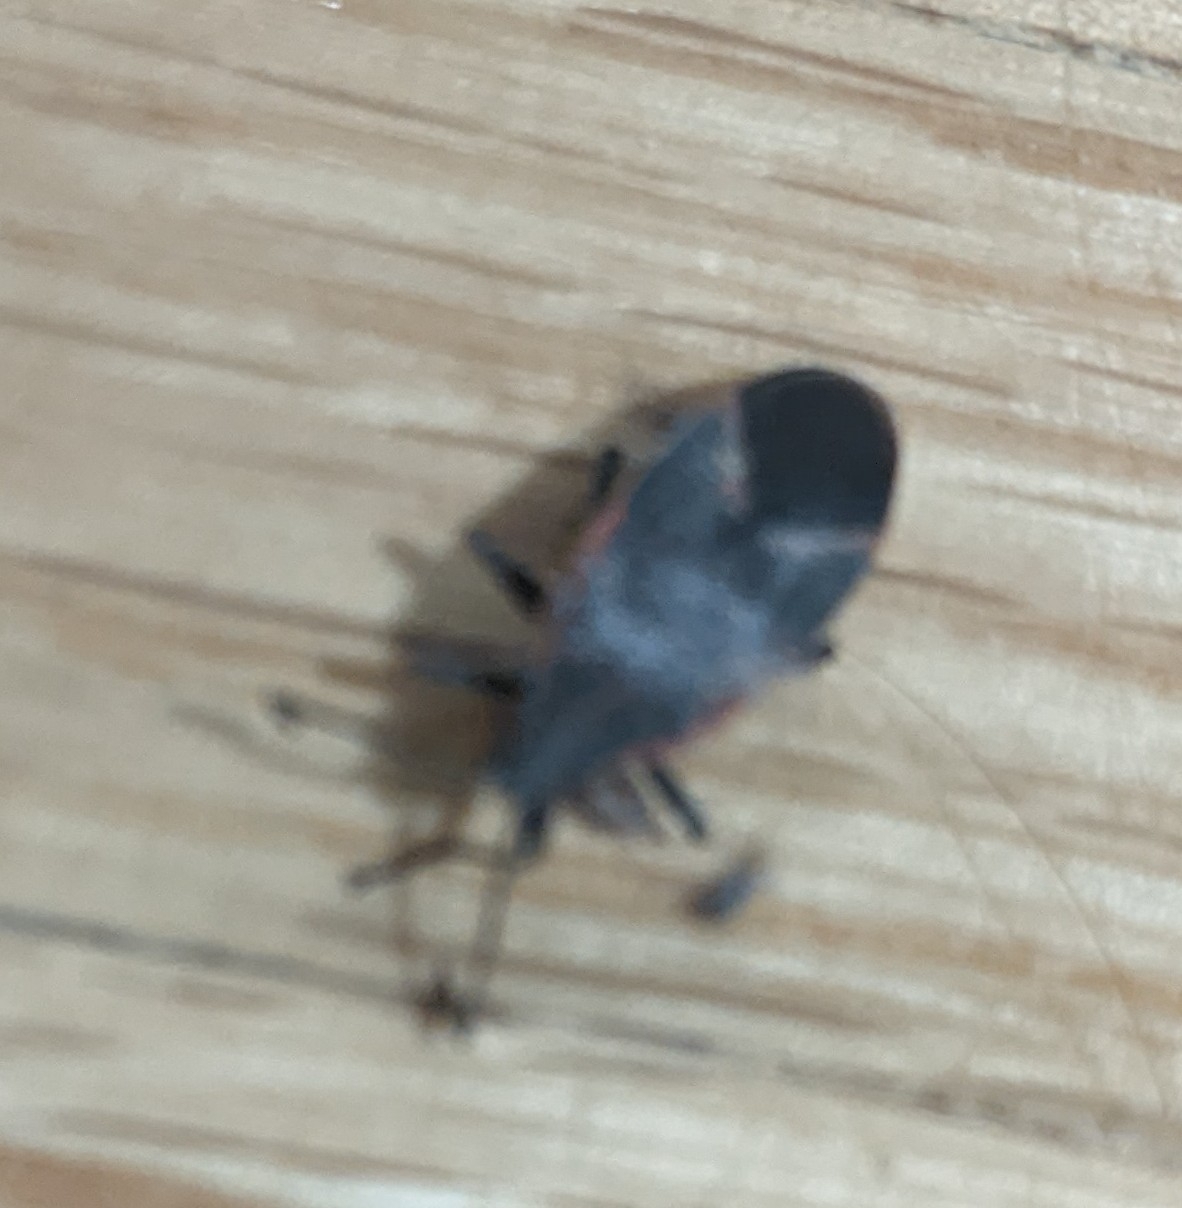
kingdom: Animalia
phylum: Arthropoda
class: Insecta
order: Hemiptera
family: Rhopalidae
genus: Boisea
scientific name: Boisea trivittata
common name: Boxelder bug
